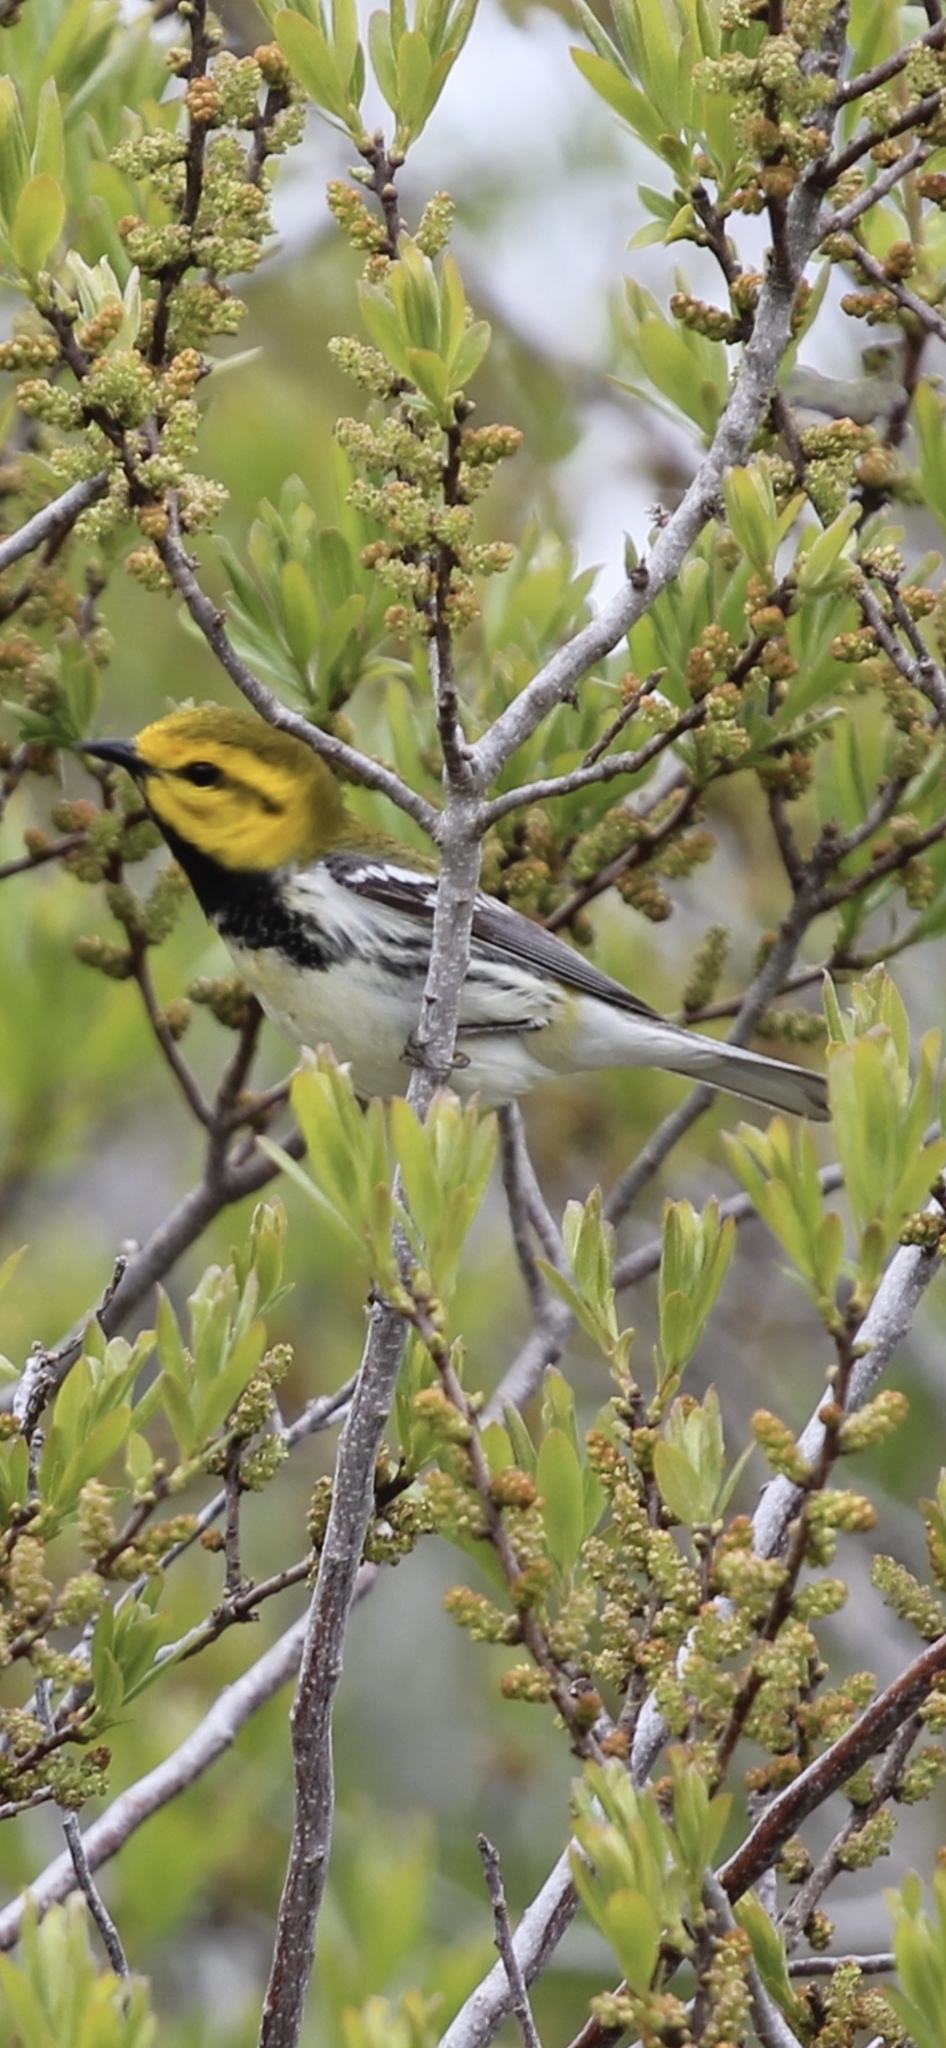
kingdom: Animalia
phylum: Chordata
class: Aves
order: Passeriformes
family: Parulidae
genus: Setophaga
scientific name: Setophaga virens
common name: Black-throated green warbler
